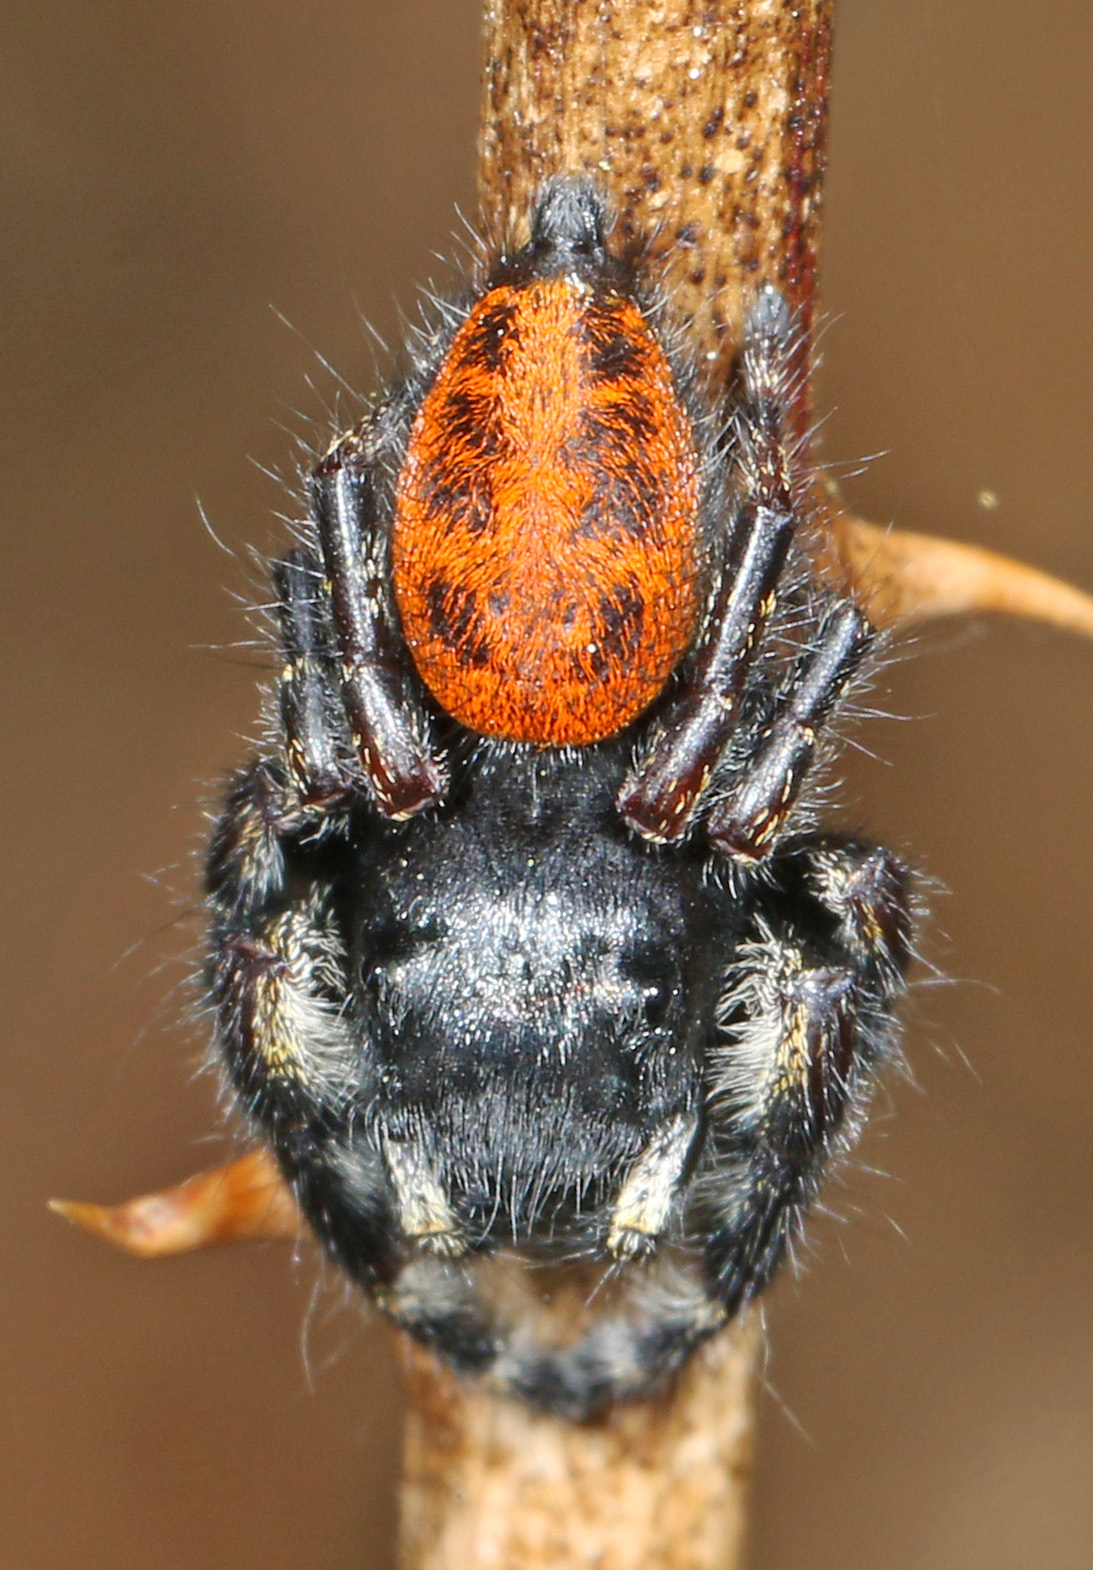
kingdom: Animalia
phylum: Arthropoda
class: Arachnida
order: Araneae
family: Salticidae
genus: Phidippus
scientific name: Phidippus princeps
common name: Grayish jumping spider
